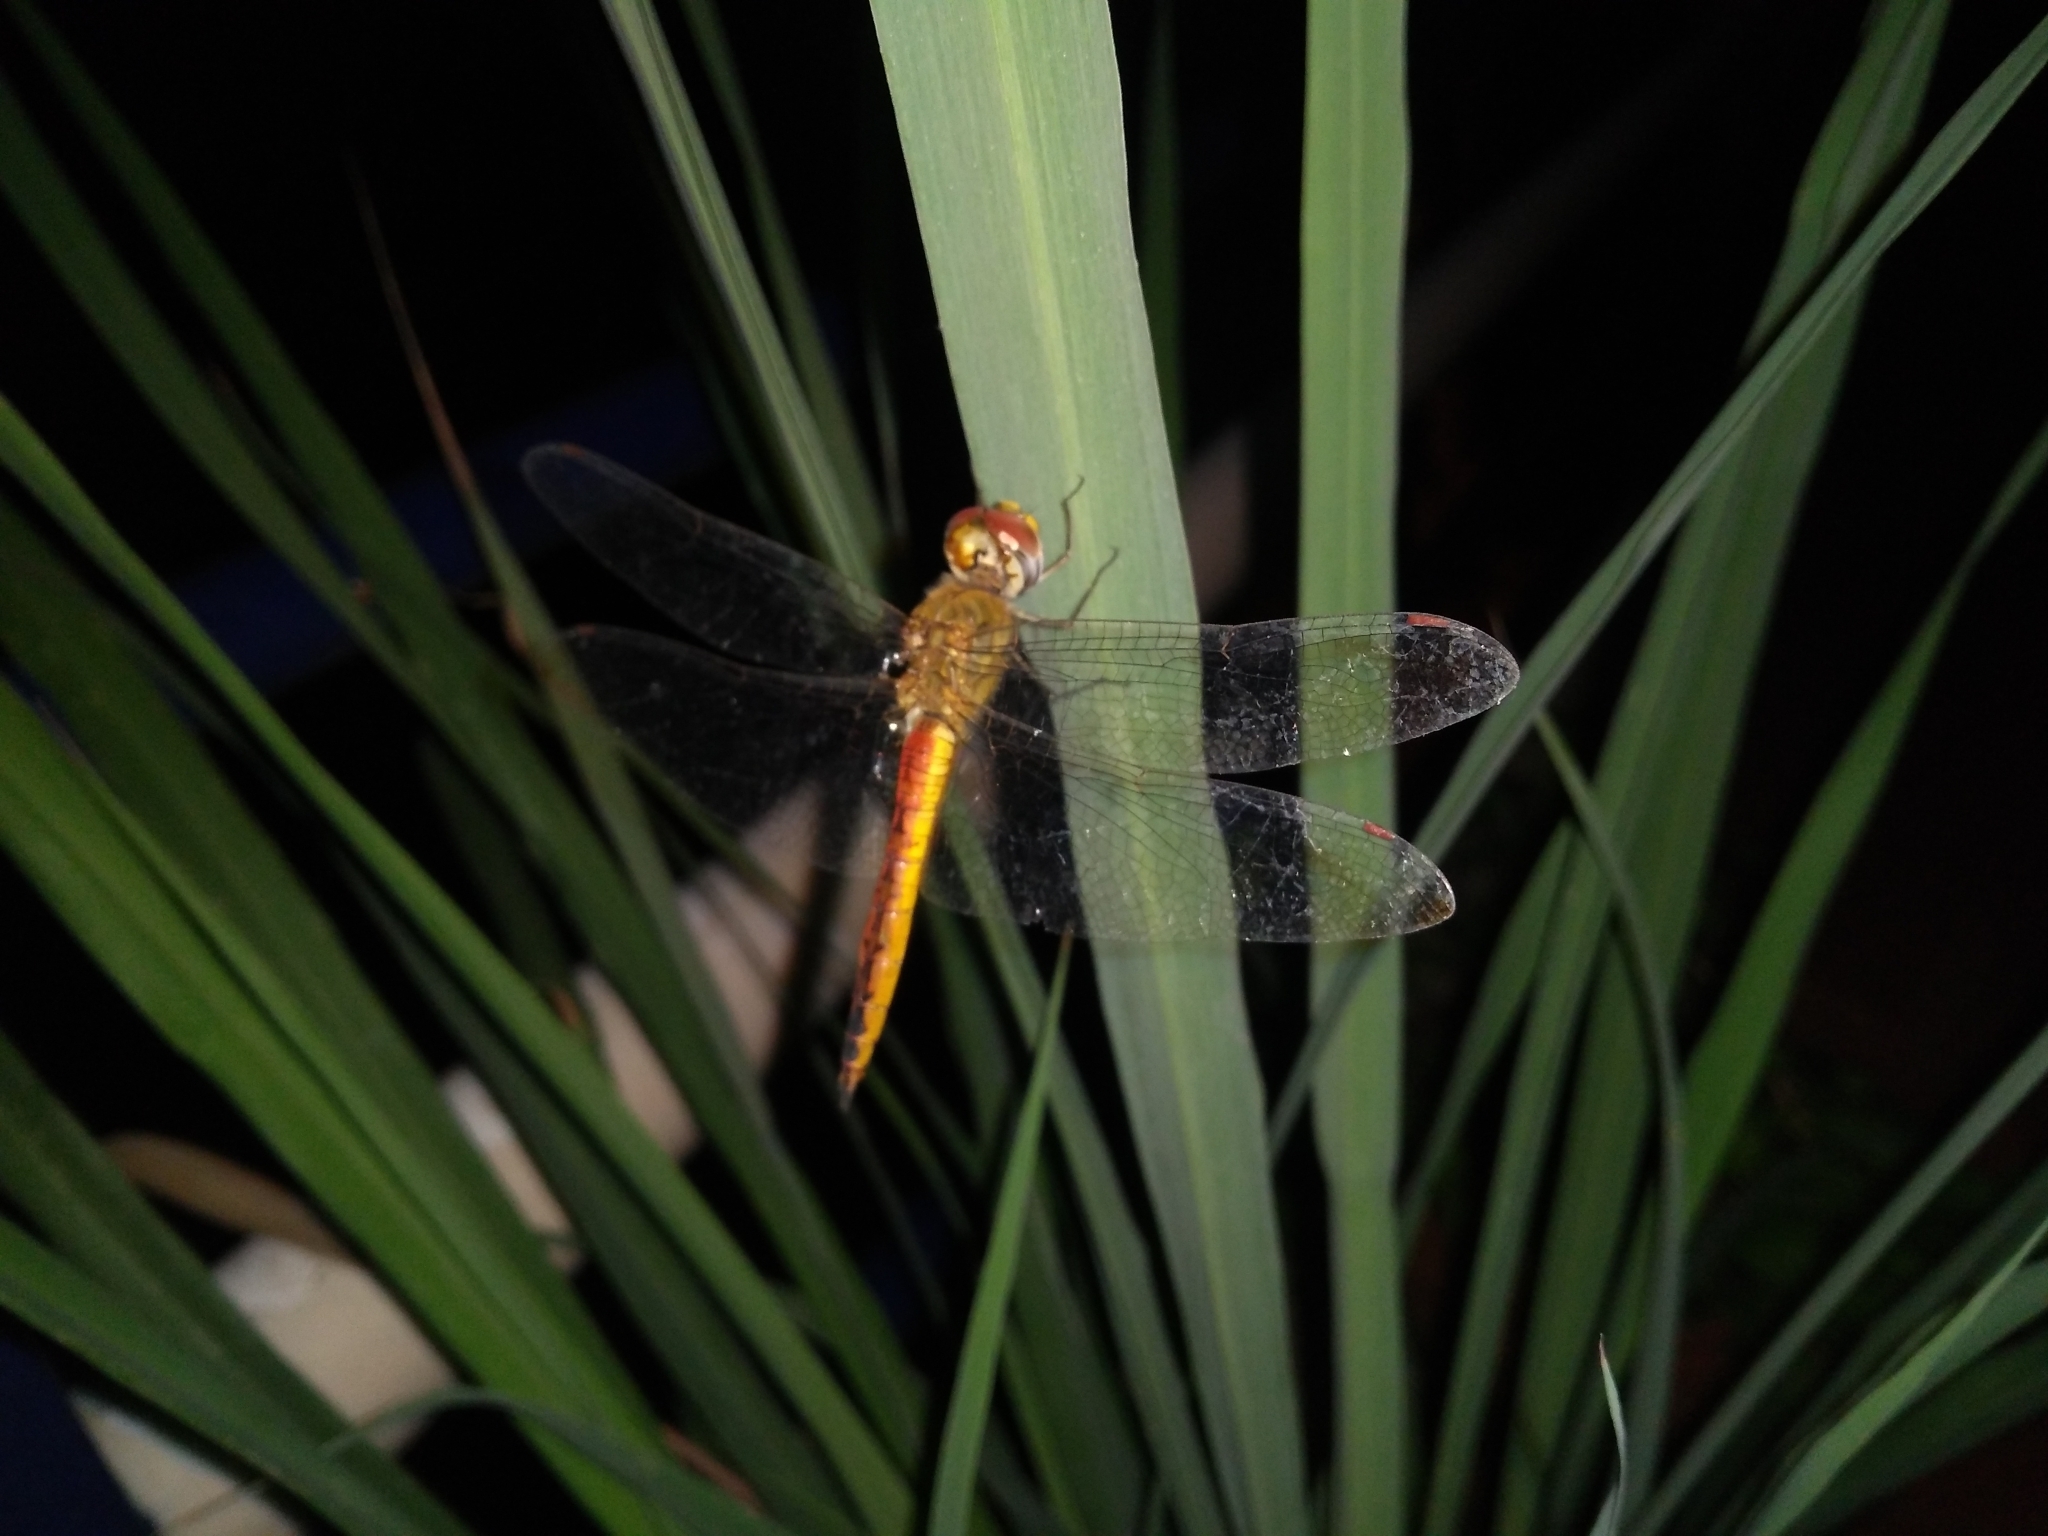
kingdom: Animalia
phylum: Arthropoda
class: Insecta
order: Odonata
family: Libellulidae
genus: Pantala
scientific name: Pantala flavescens
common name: Wandering glider
